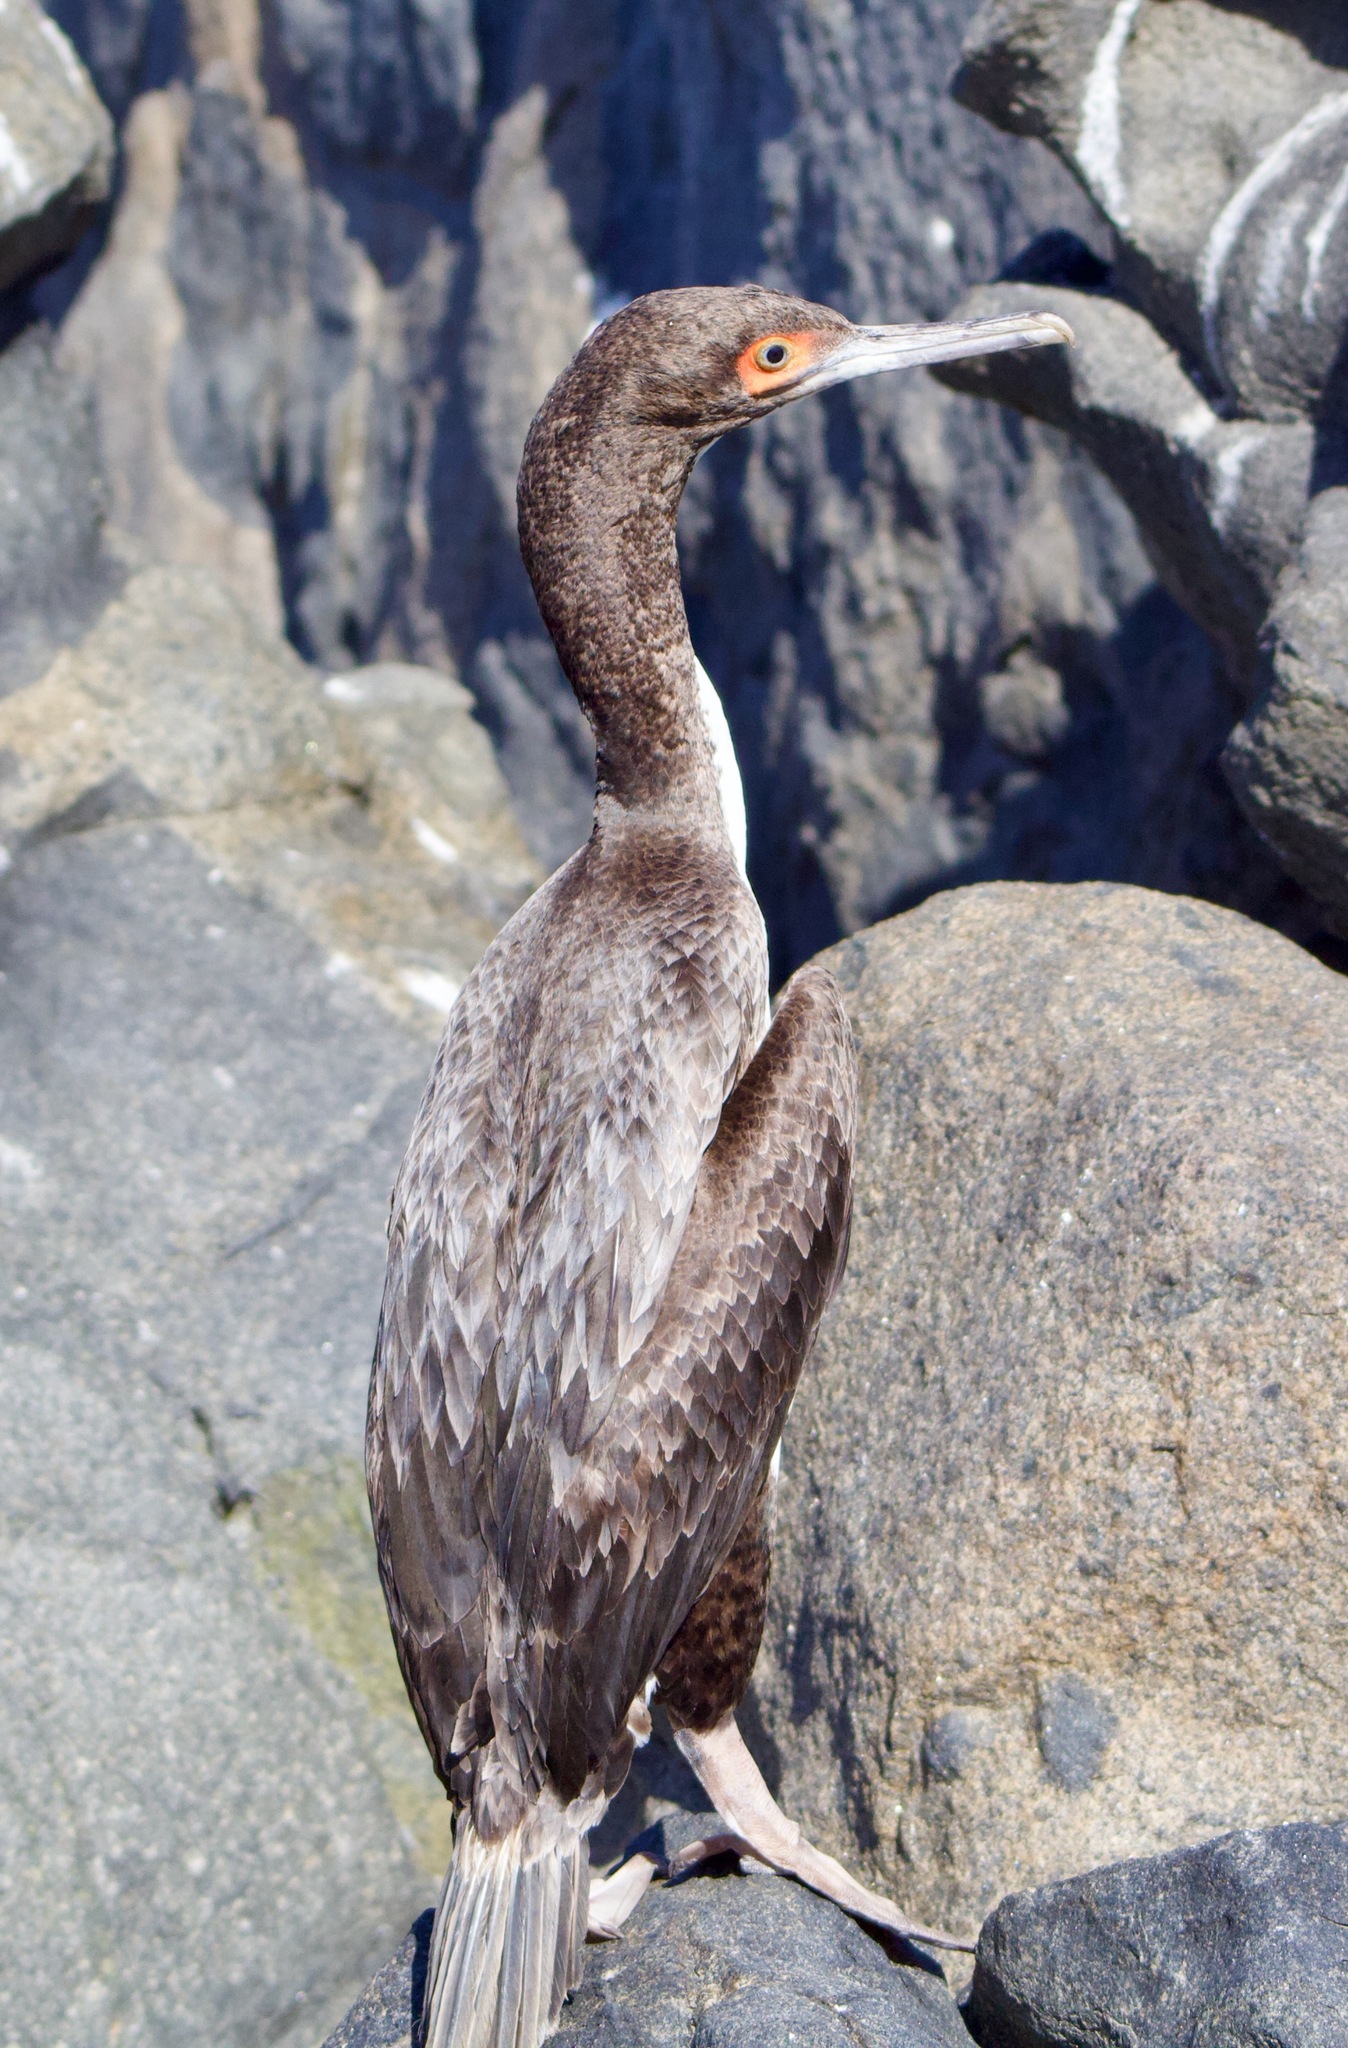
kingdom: Animalia
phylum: Chordata
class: Aves
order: Suliformes
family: Phalacrocoracidae
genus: Leucocarbo
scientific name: Leucocarbo bougainvillii
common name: Guanay cormorant
